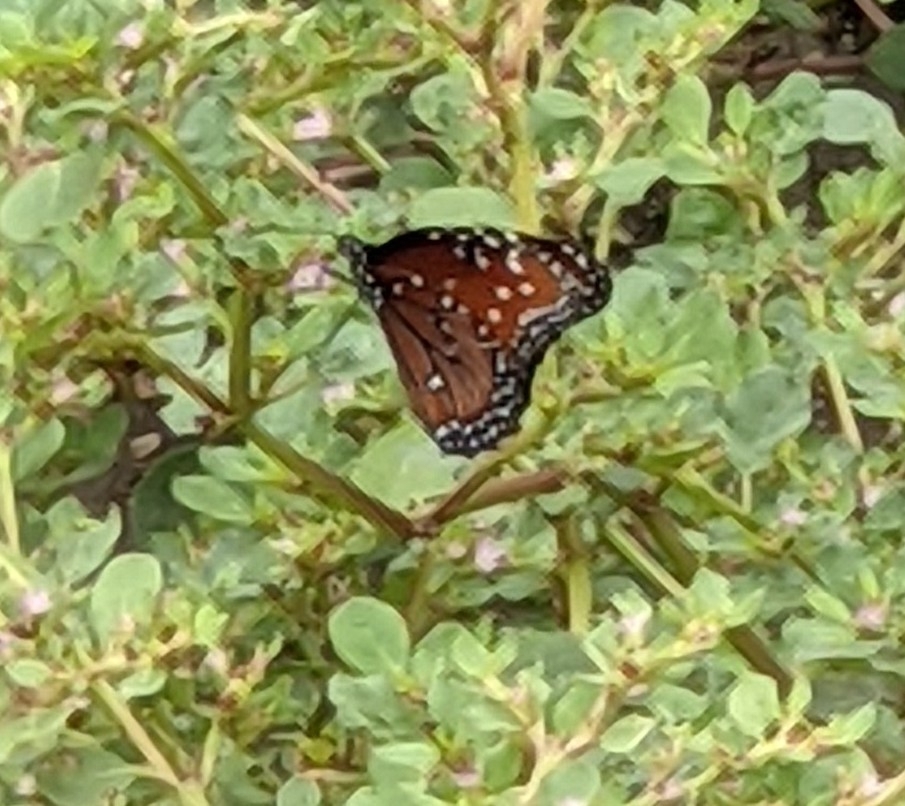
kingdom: Animalia
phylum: Arthropoda
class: Insecta
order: Lepidoptera
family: Nymphalidae
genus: Danaus
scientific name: Danaus gilippus
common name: Queen
